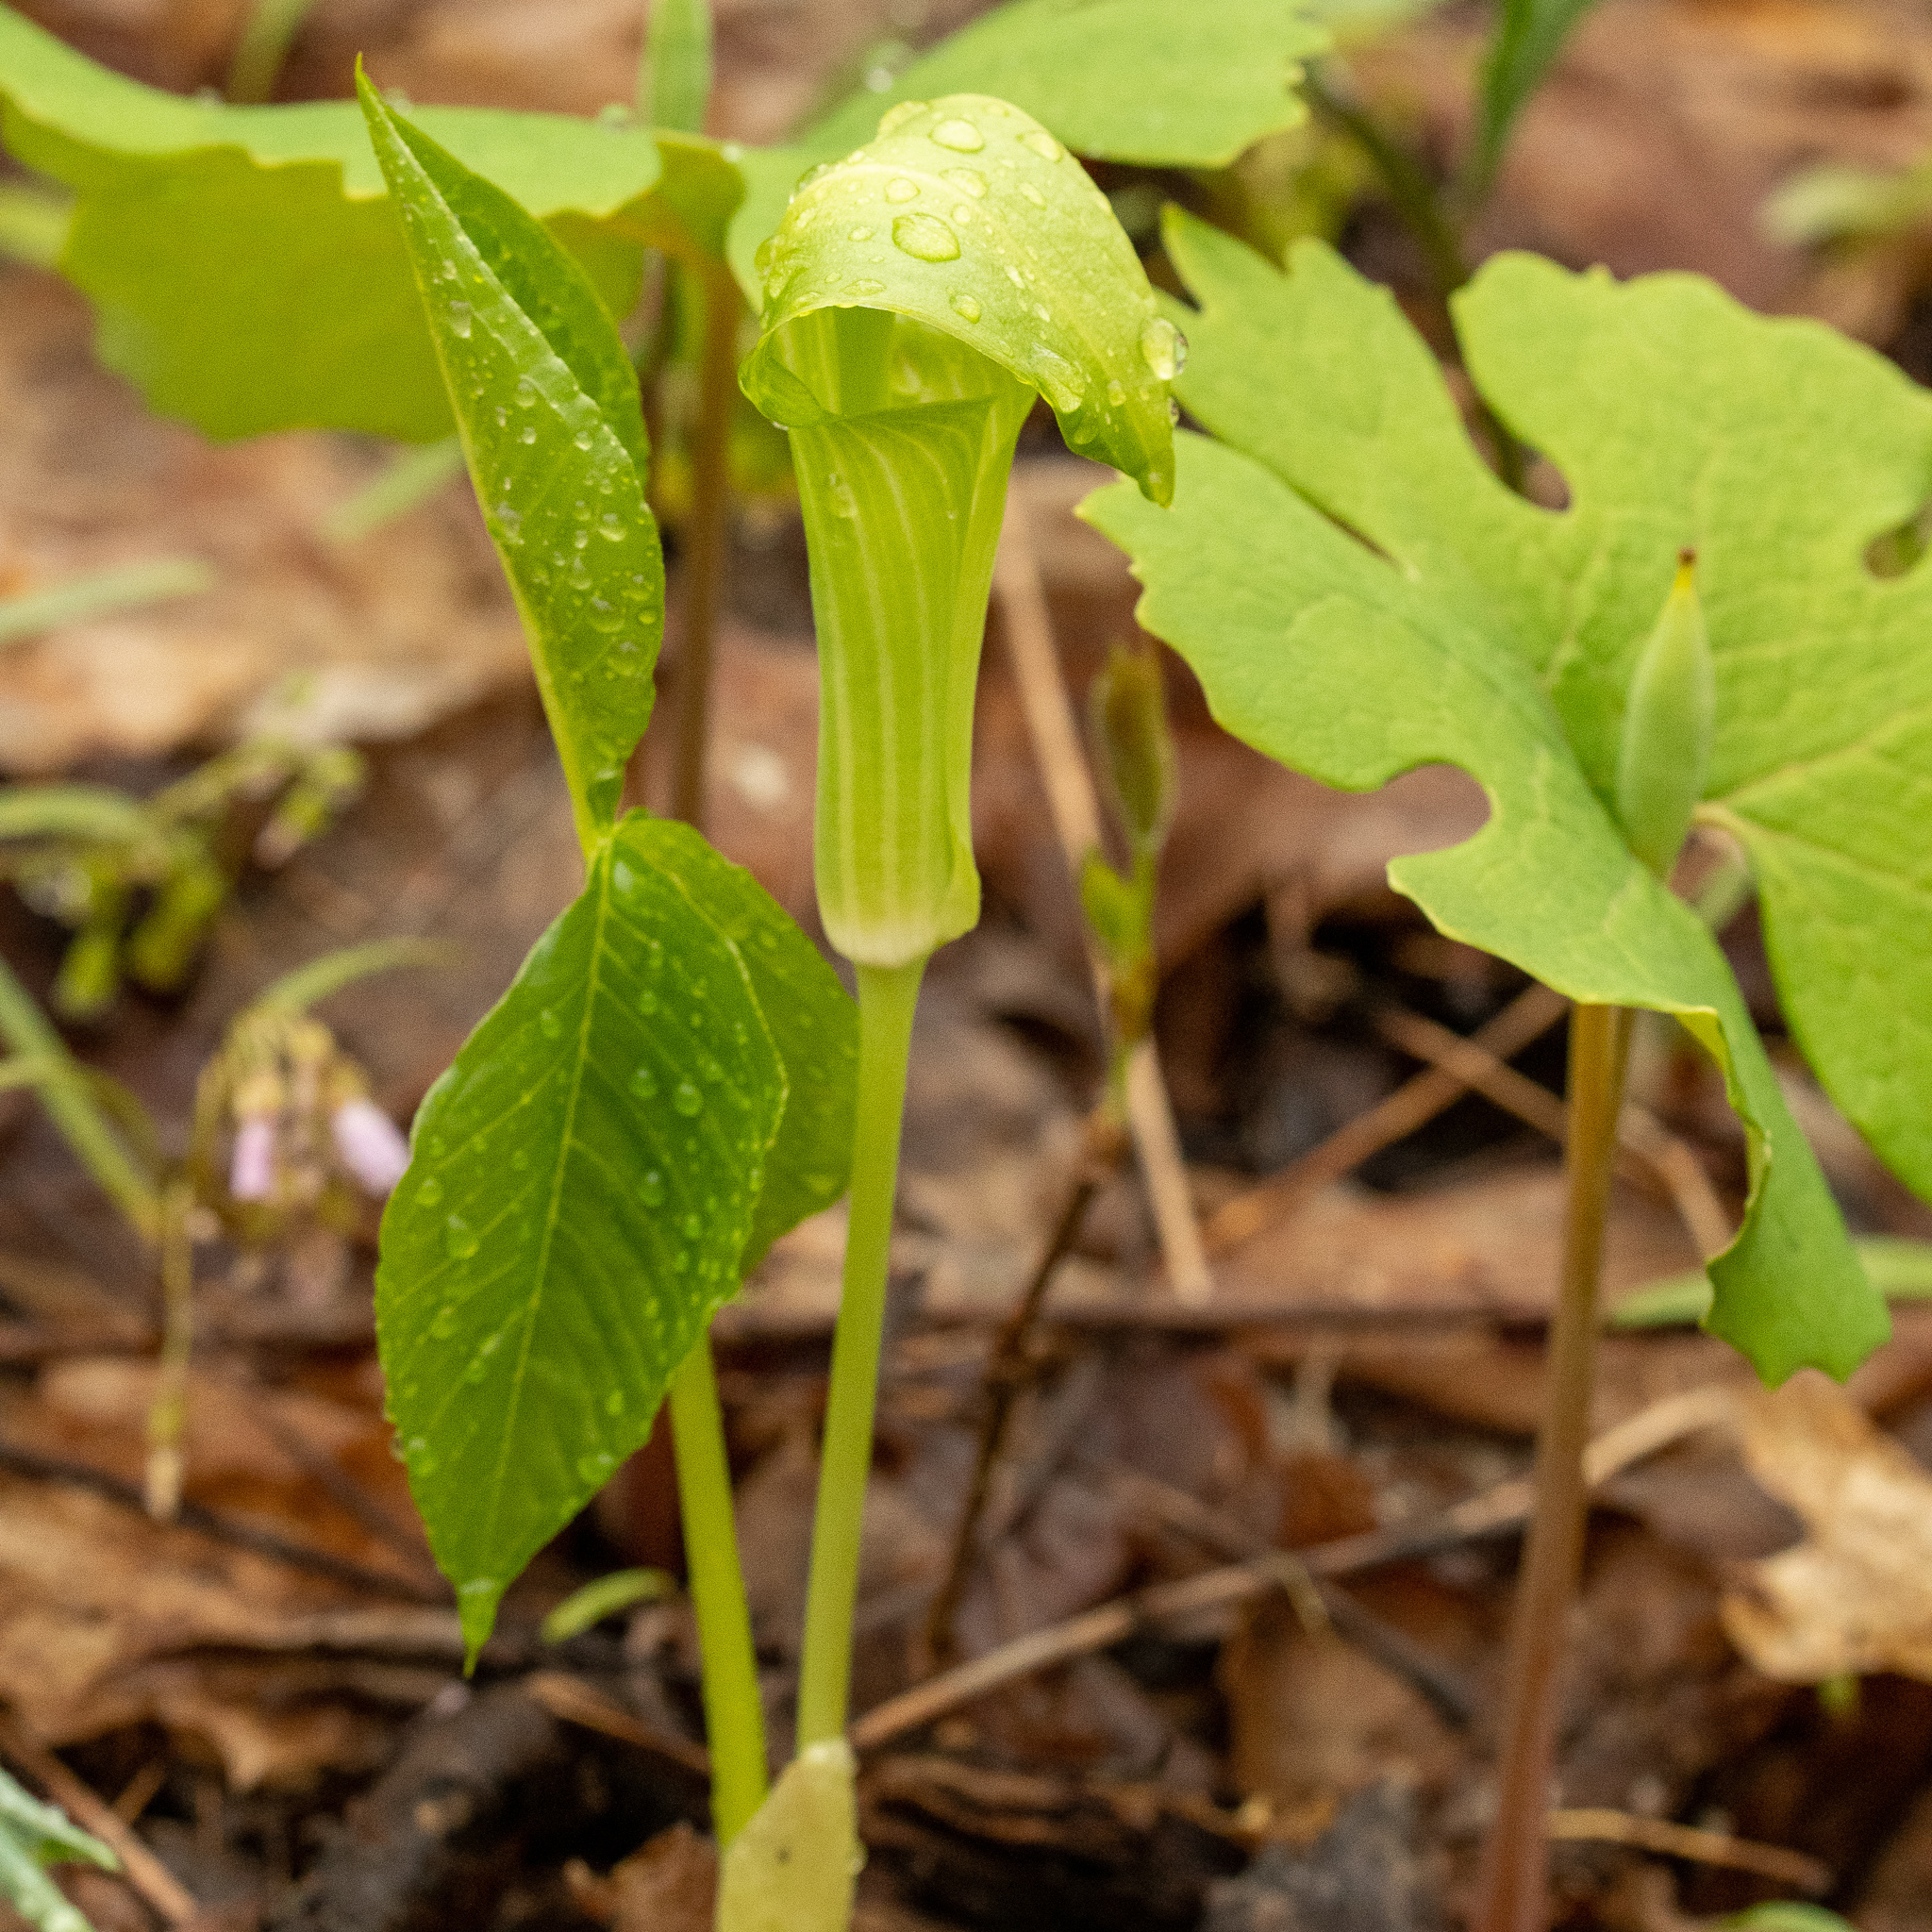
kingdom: Plantae
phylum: Tracheophyta
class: Liliopsida
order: Alismatales
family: Araceae
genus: Arisaema
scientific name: Arisaema triphyllum
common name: Jack-in-the-pulpit
